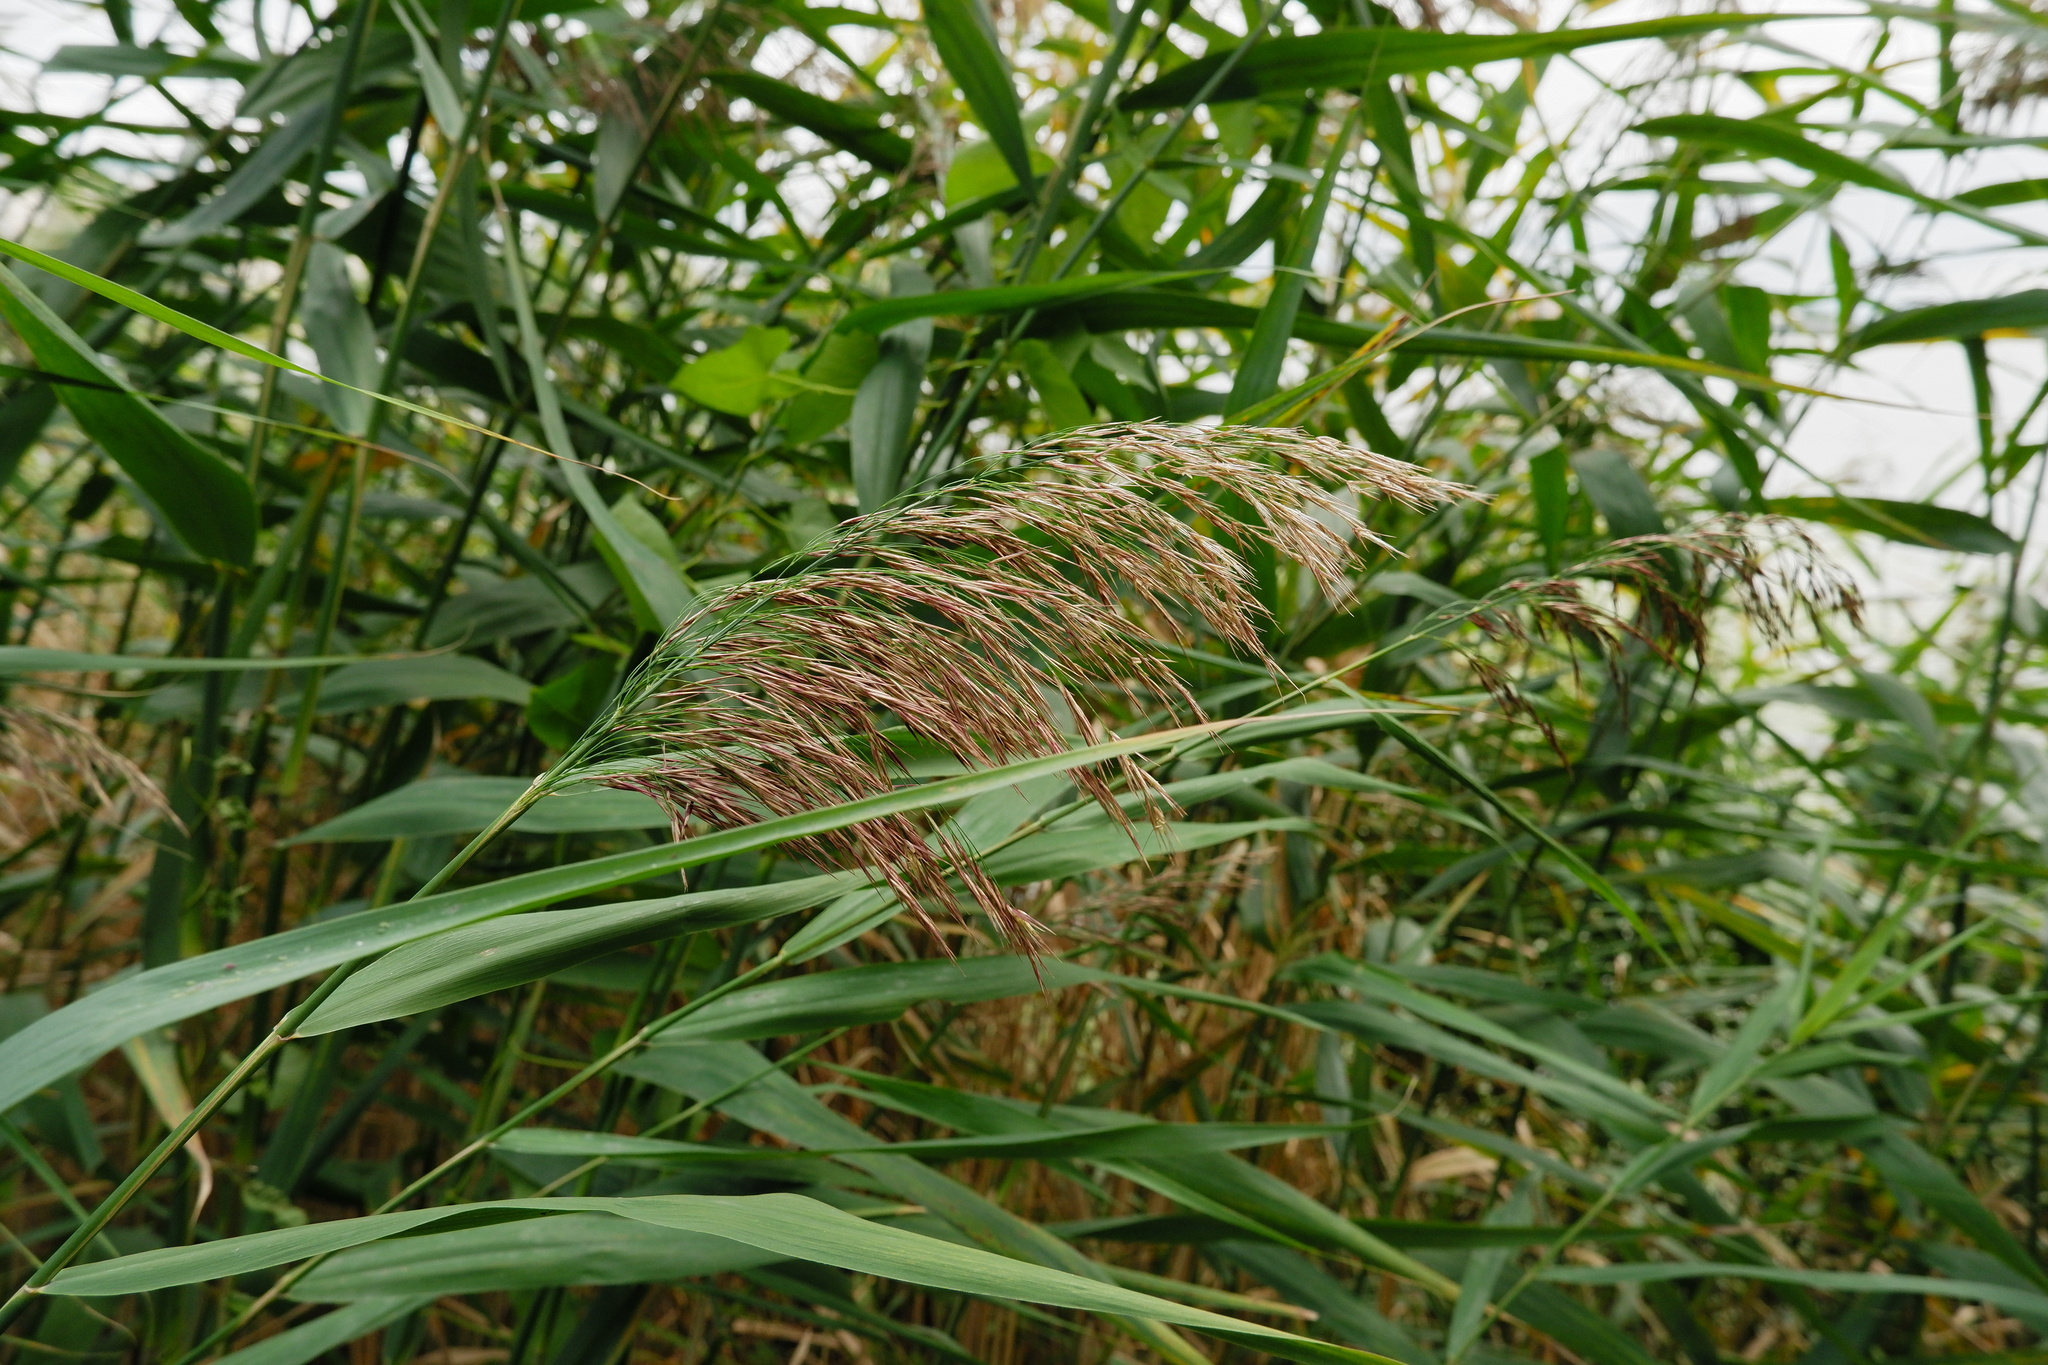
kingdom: Plantae
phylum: Tracheophyta
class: Liliopsida
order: Poales
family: Poaceae
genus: Phragmites
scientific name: Phragmites australis
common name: Common reed
